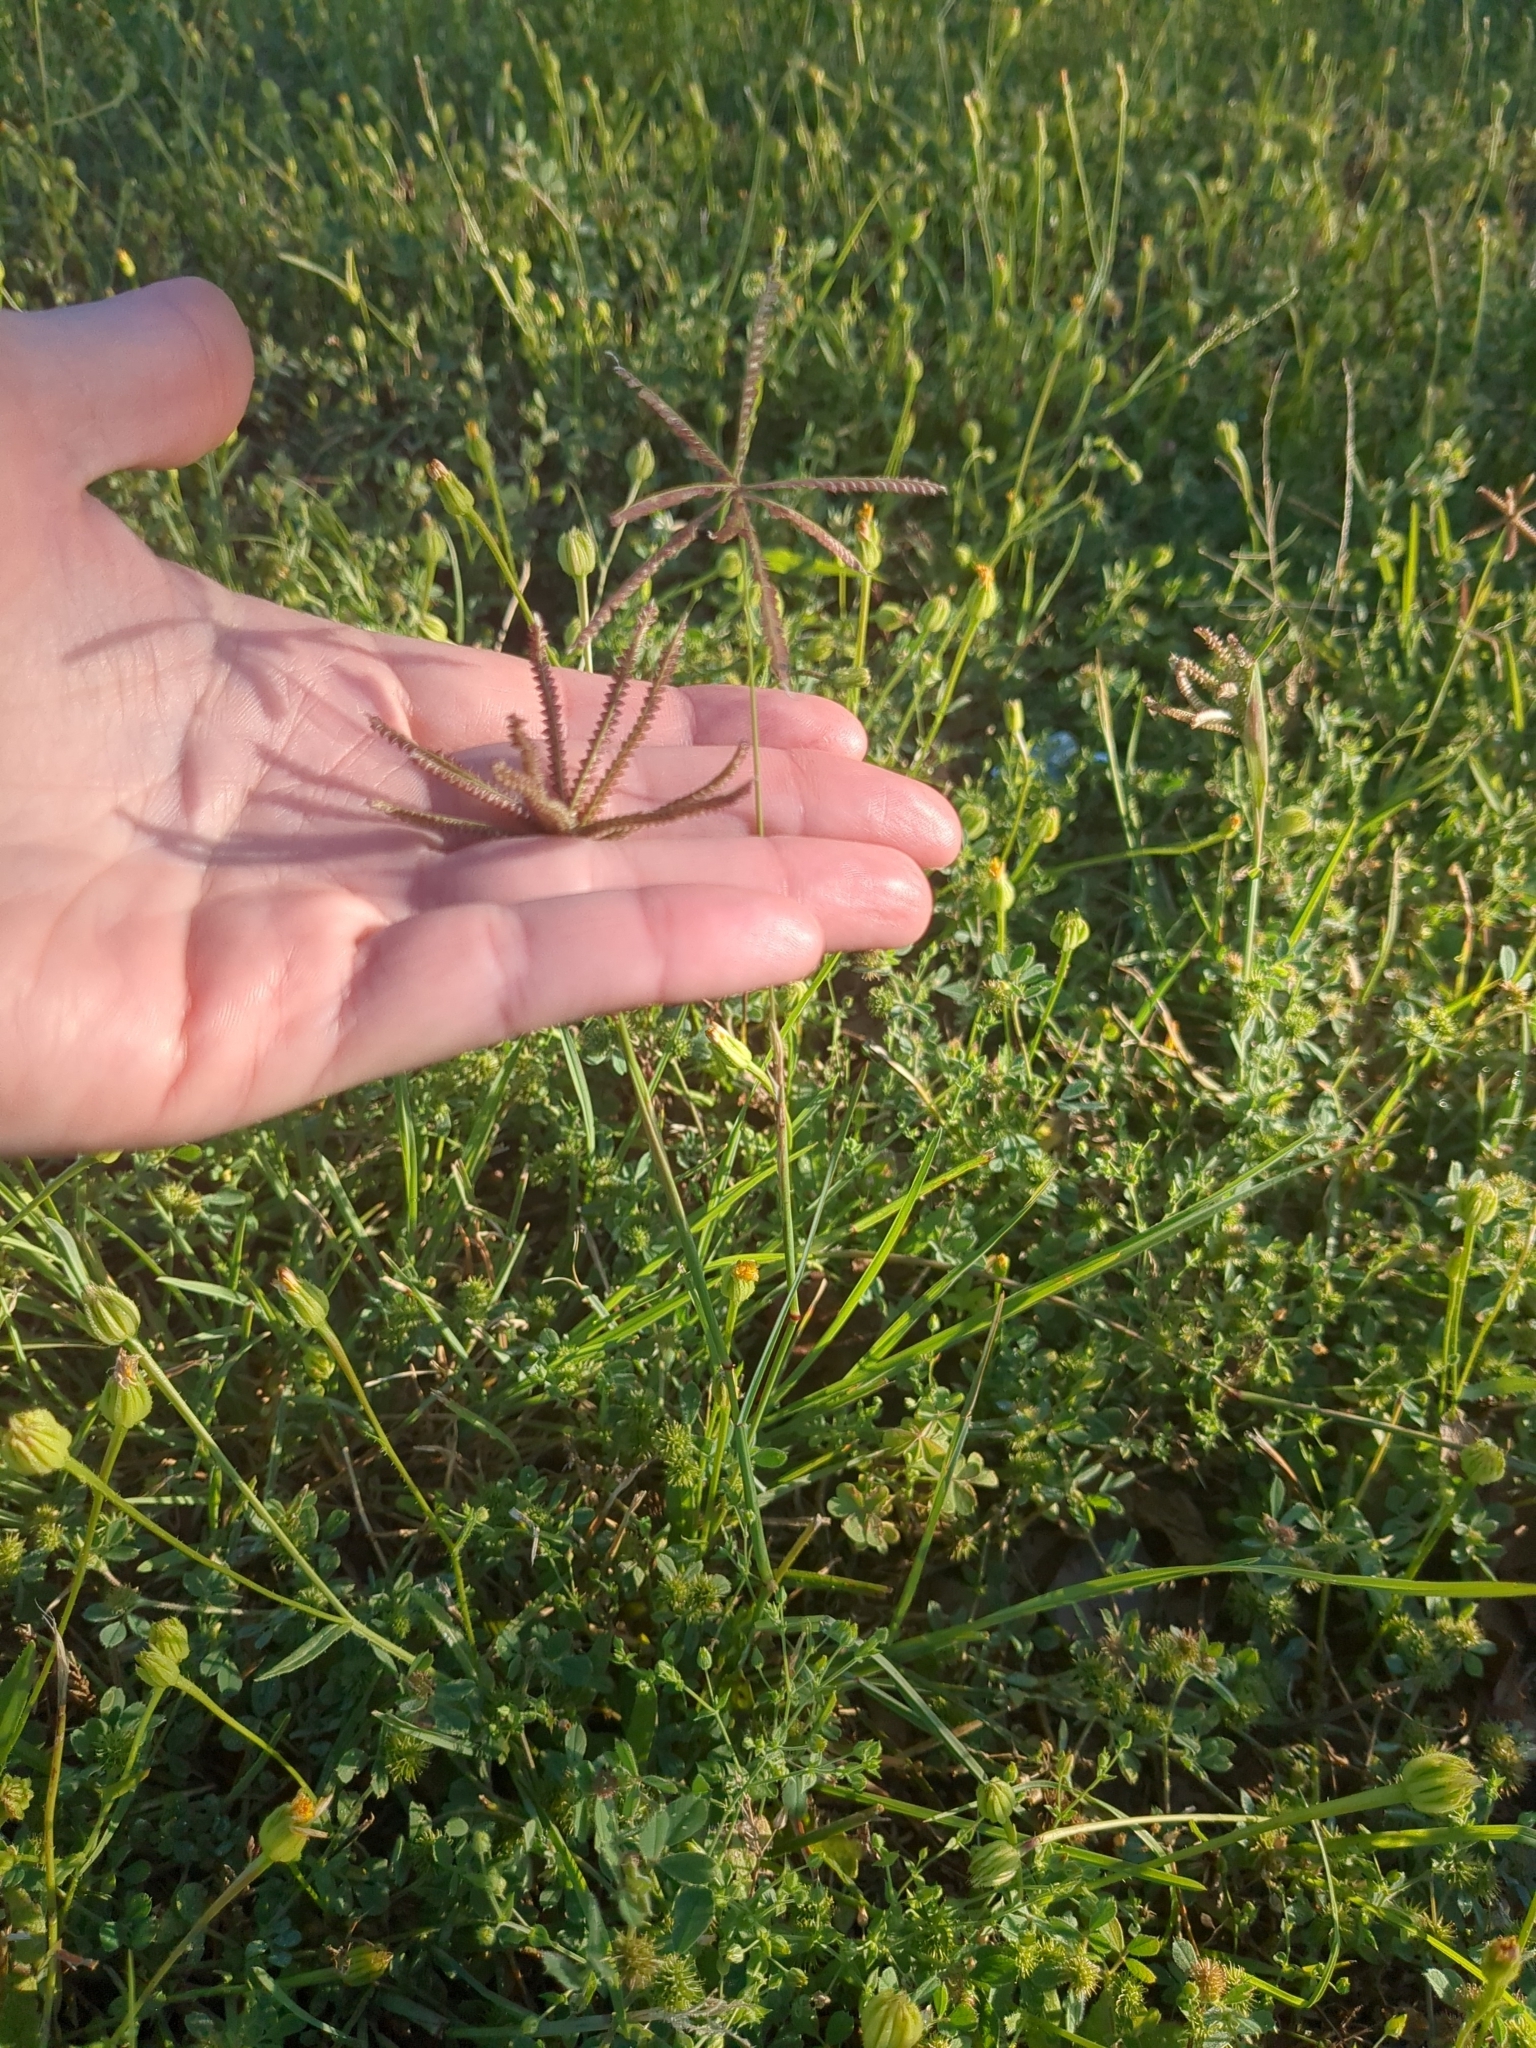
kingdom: Plantae
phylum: Tracheophyta
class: Liliopsida
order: Poales
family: Poaceae
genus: Chloris
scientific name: Chloris cucullata
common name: Hooded windmill grass
